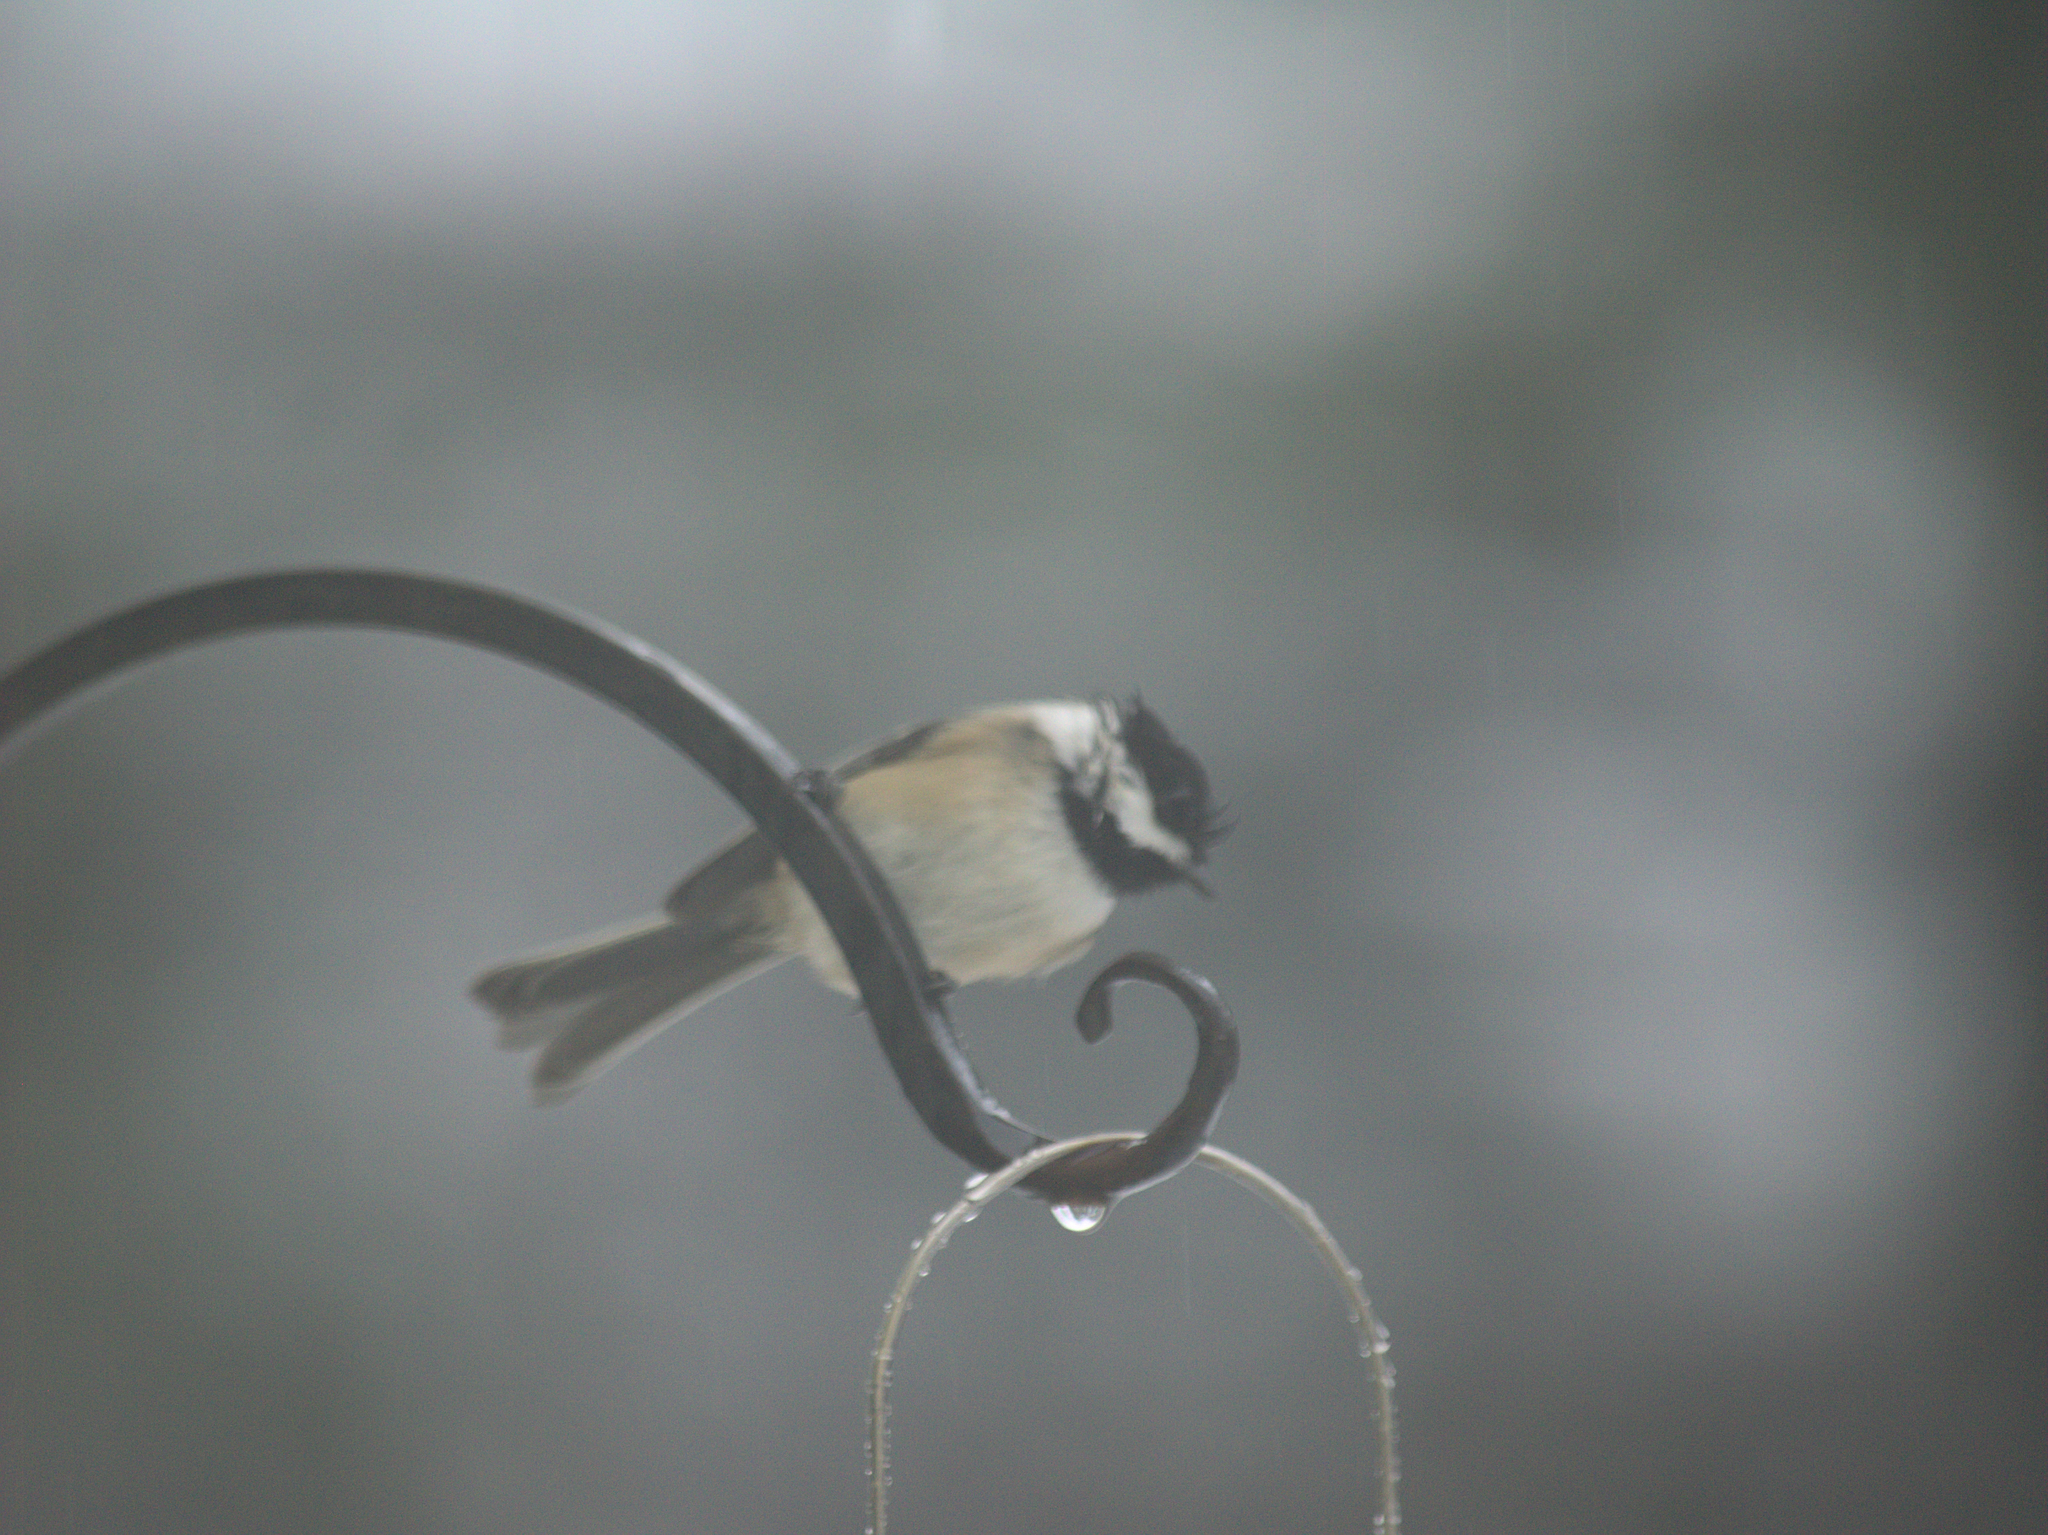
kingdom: Animalia
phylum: Chordata
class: Aves
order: Passeriformes
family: Paridae
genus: Poecile
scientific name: Poecile atricapillus
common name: Black-capped chickadee
